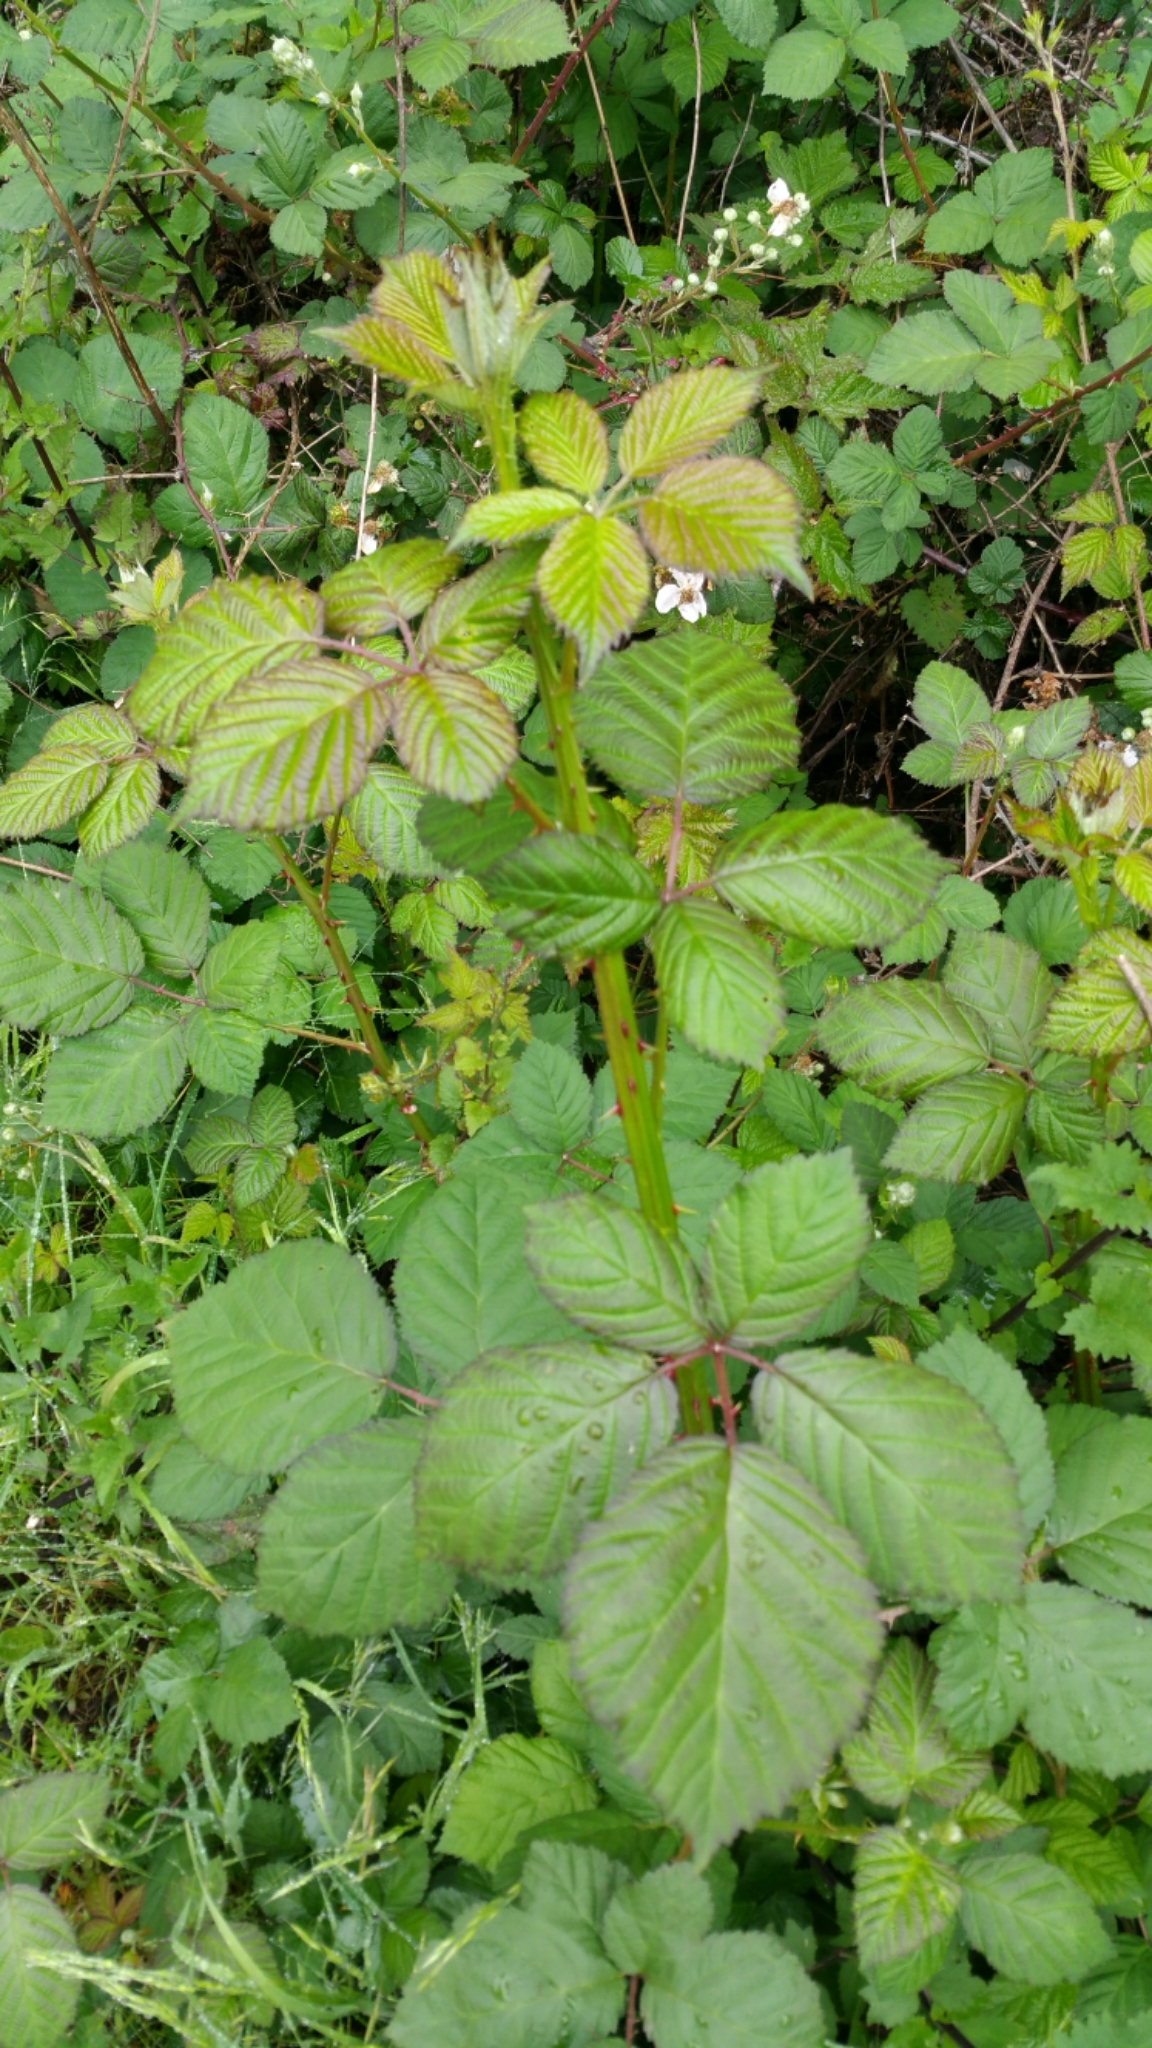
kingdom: Plantae
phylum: Tracheophyta
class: Magnoliopsida
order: Rosales
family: Rosaceae
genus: Rubus
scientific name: Rubus armeniacus
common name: Himalayan blackberry
